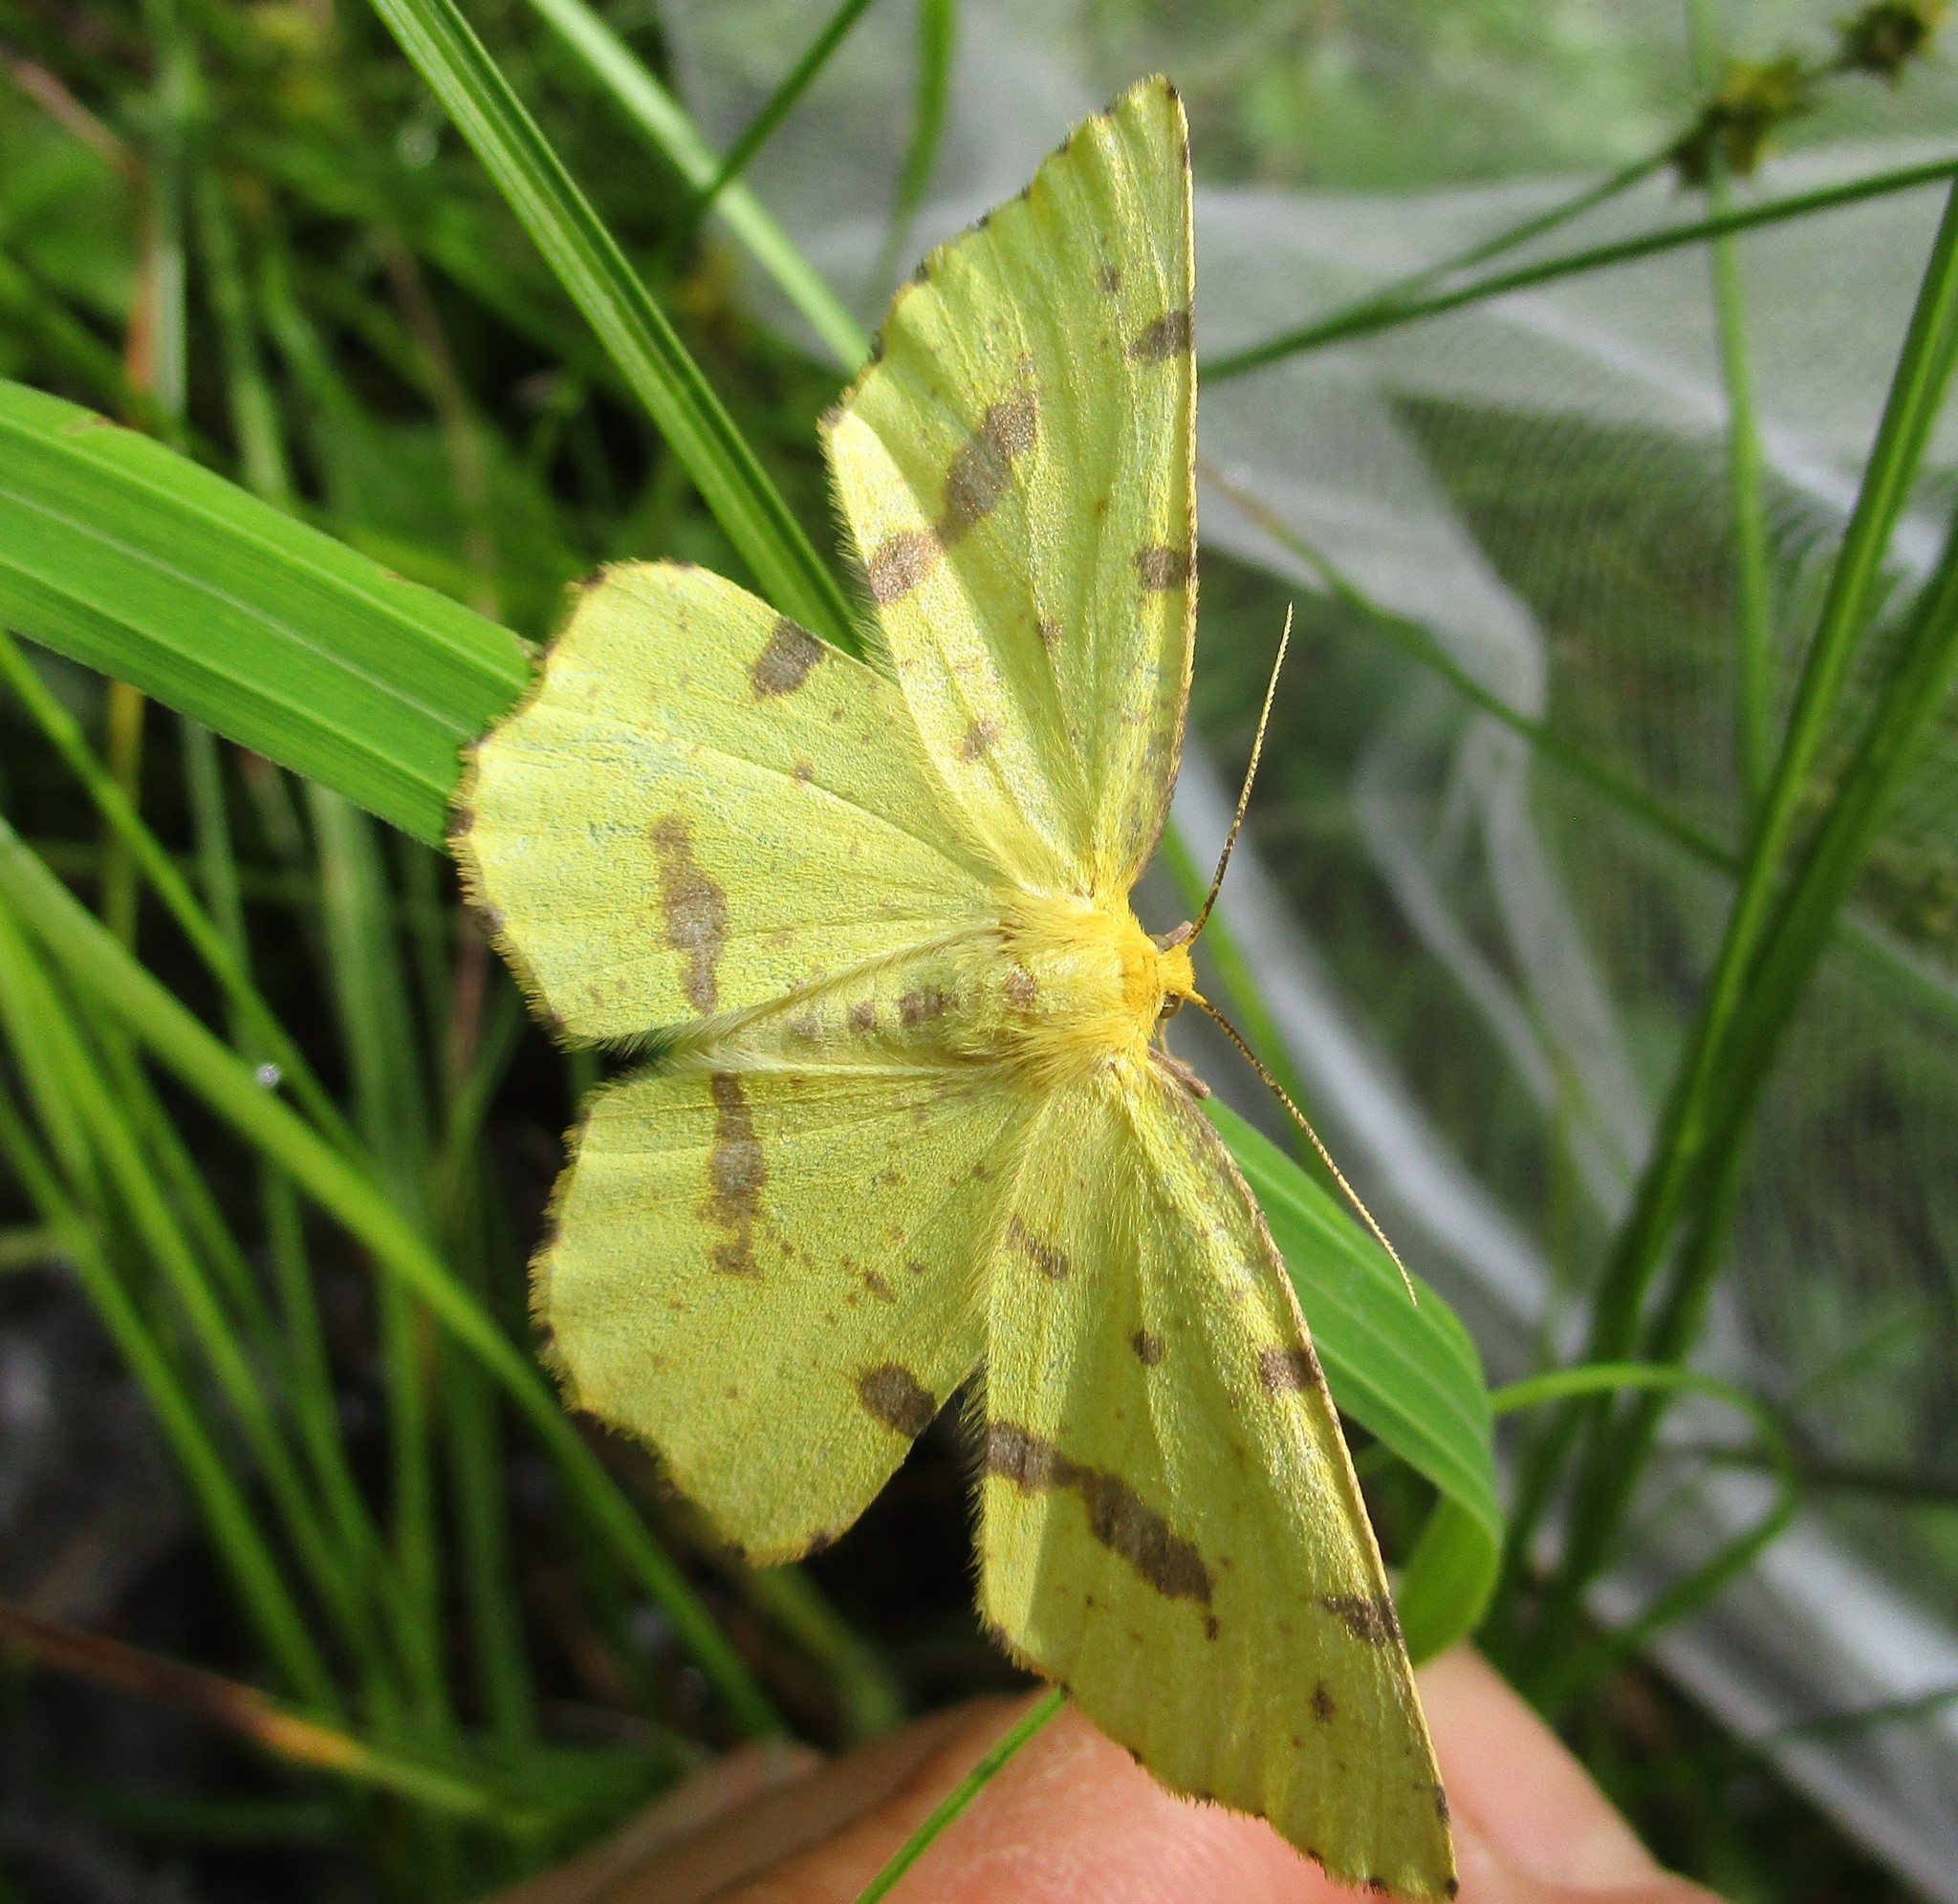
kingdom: Animalia
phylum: Arthropoda
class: Insecta
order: Lepidoptera
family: Geometridae
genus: Xanthotype
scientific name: Xanthotype
